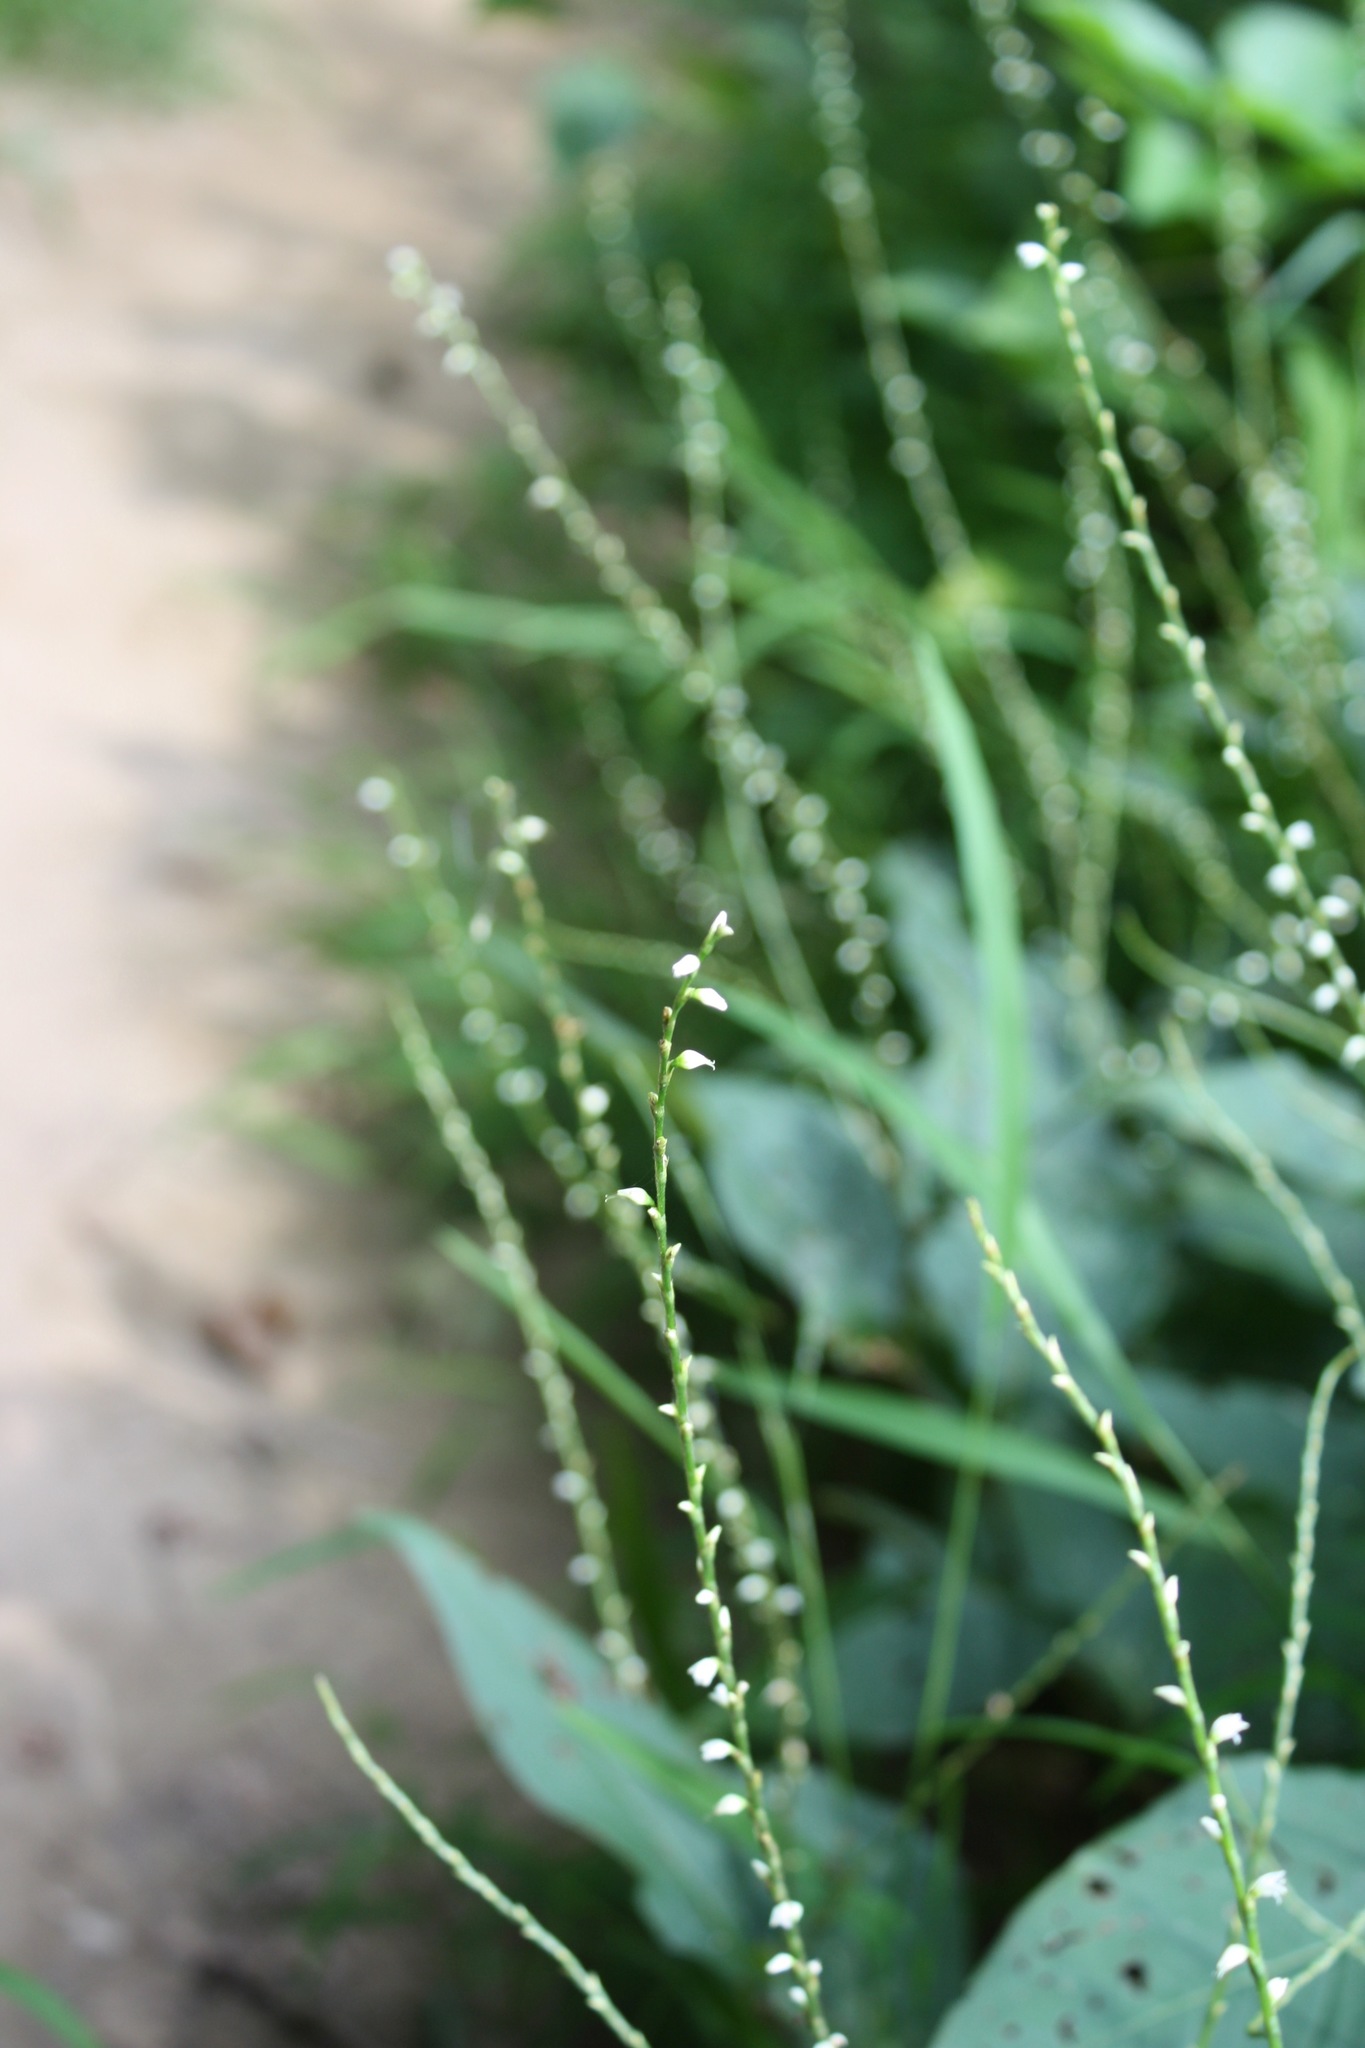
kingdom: Plantae
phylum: Tracheophyta
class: Magnoliopsida
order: Caryophyllales
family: Polygonaceae
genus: Persicaria
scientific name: Persicaria virginiana
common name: Jumpseed
